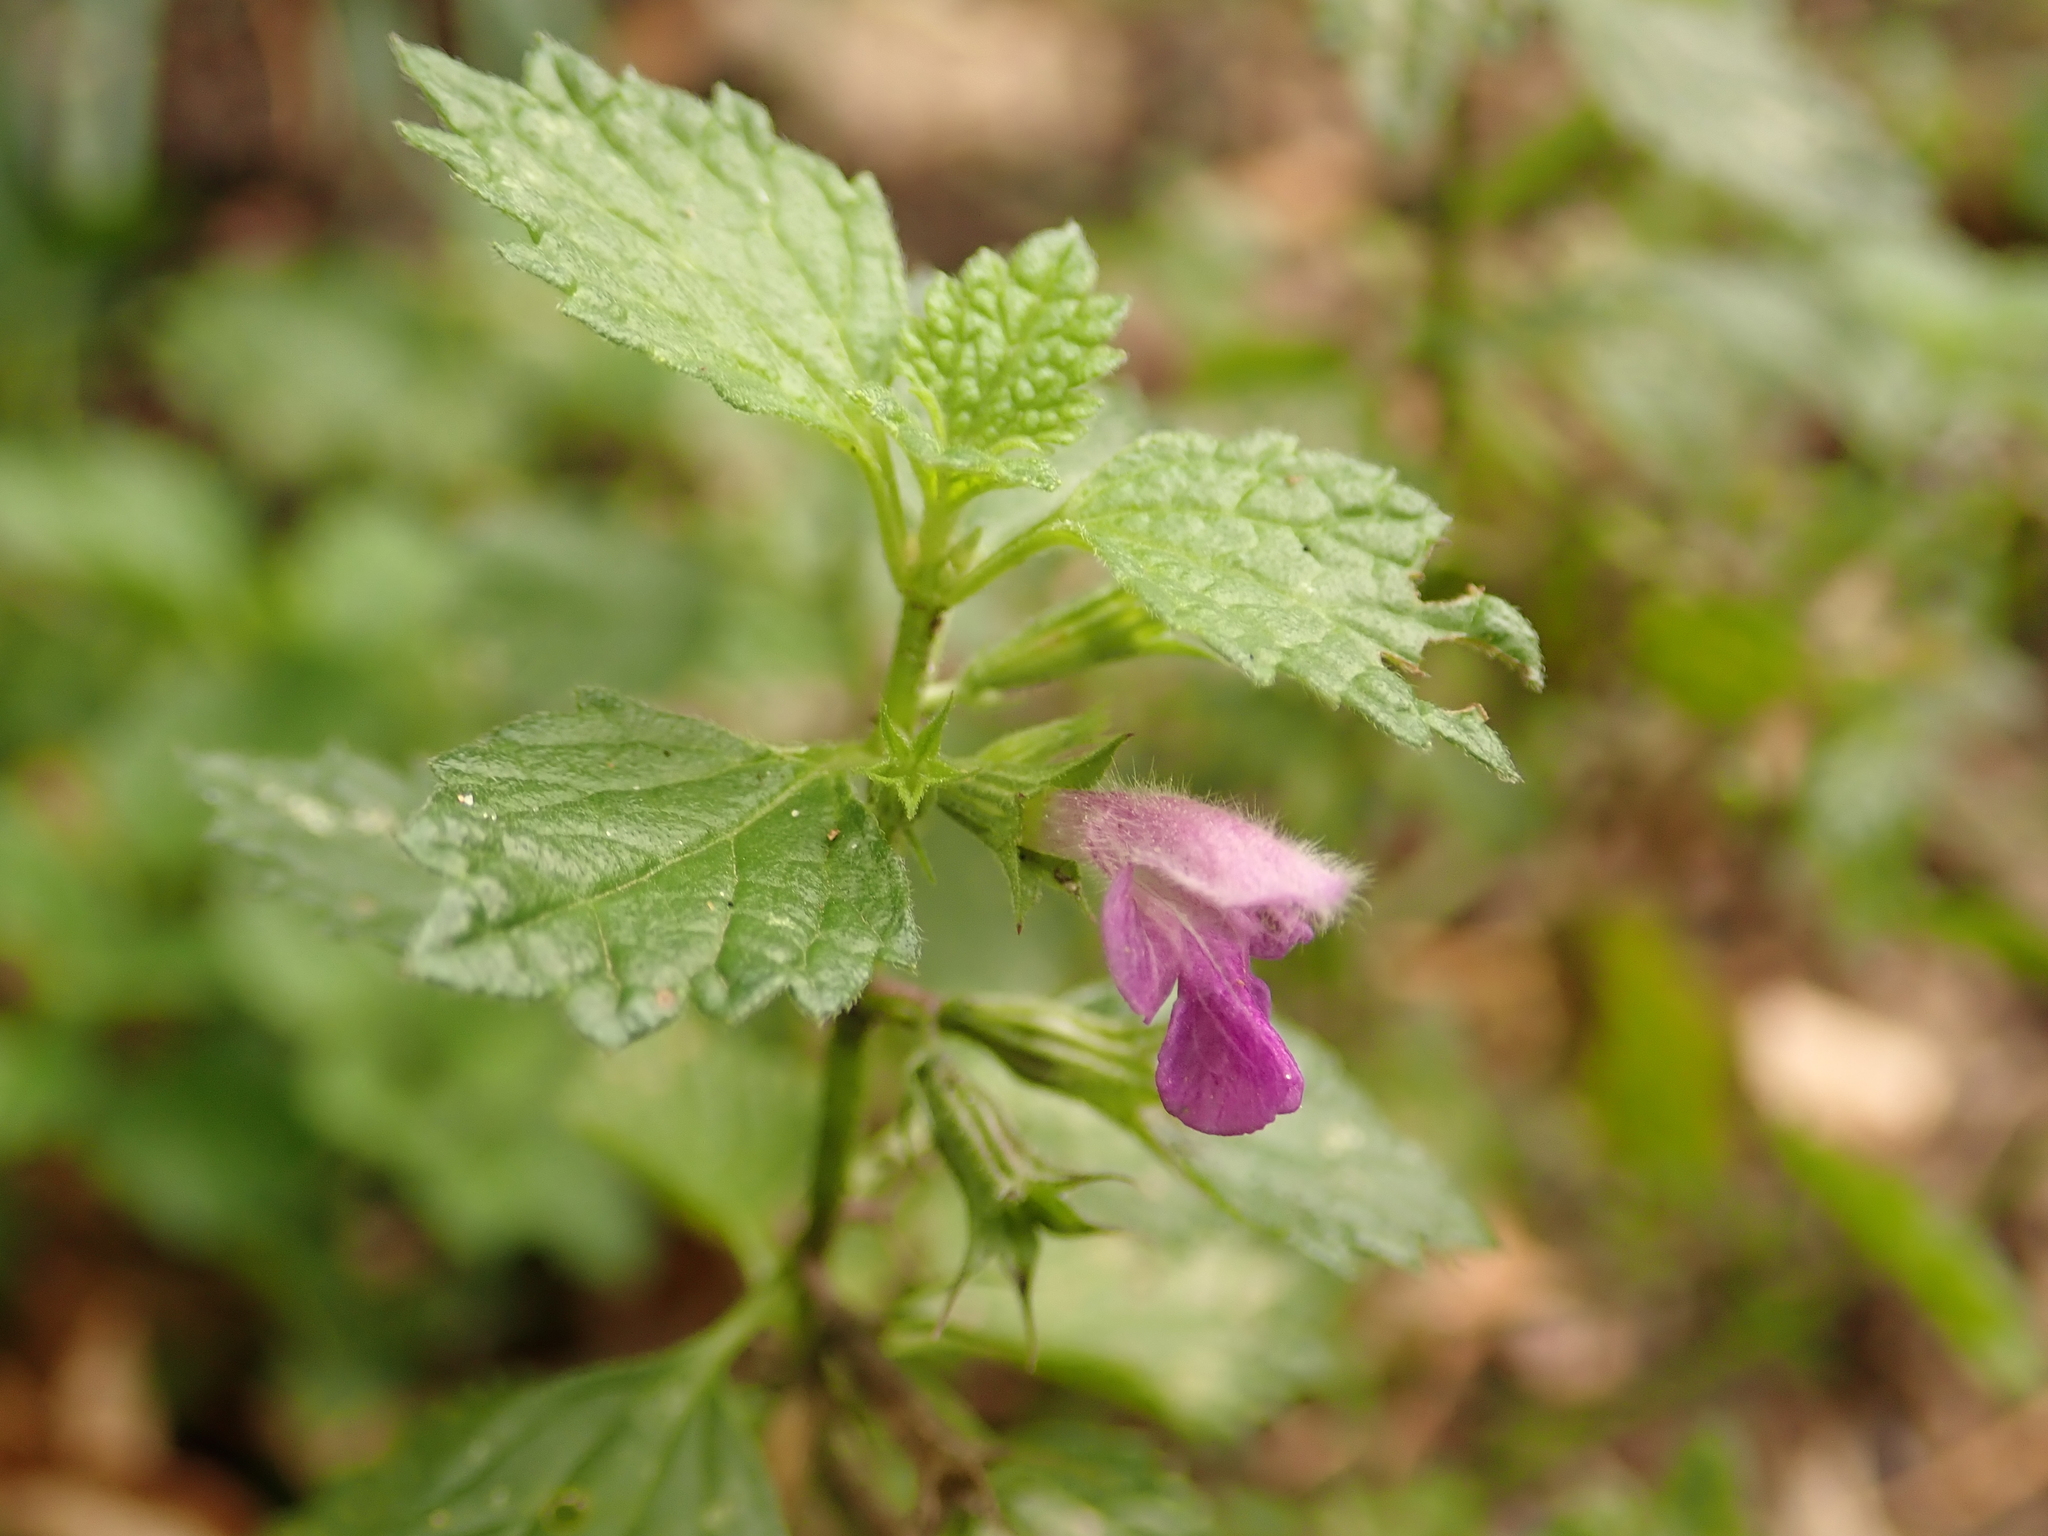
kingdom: Plantae
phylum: Tracheophyta
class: Magnoliopsida
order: Lamiales
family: Lamiaceae
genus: Ballota
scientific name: Ballota nigra
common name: Black horehound
